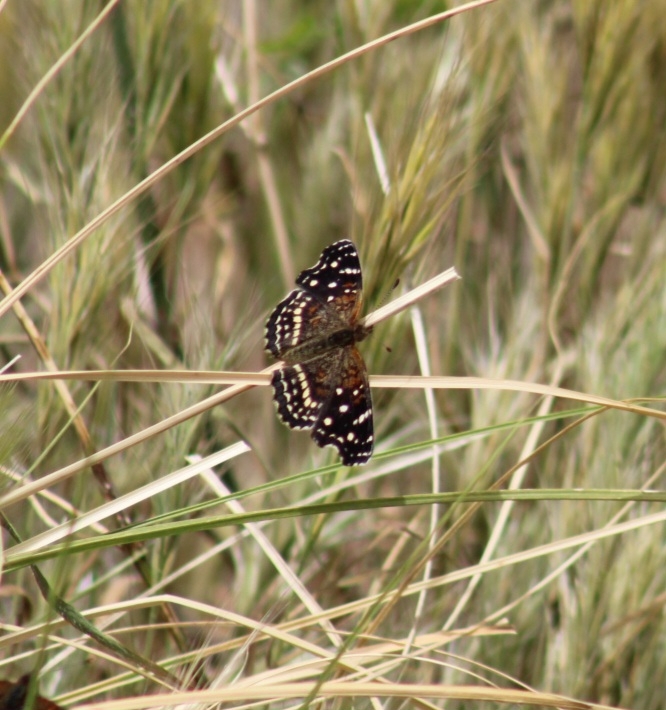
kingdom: Animalia
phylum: Arthropoda
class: Insecta
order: Lepidoptera
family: Nymphalidae
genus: Anthanassa
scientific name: Anthanassa texana
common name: Texan crescent
